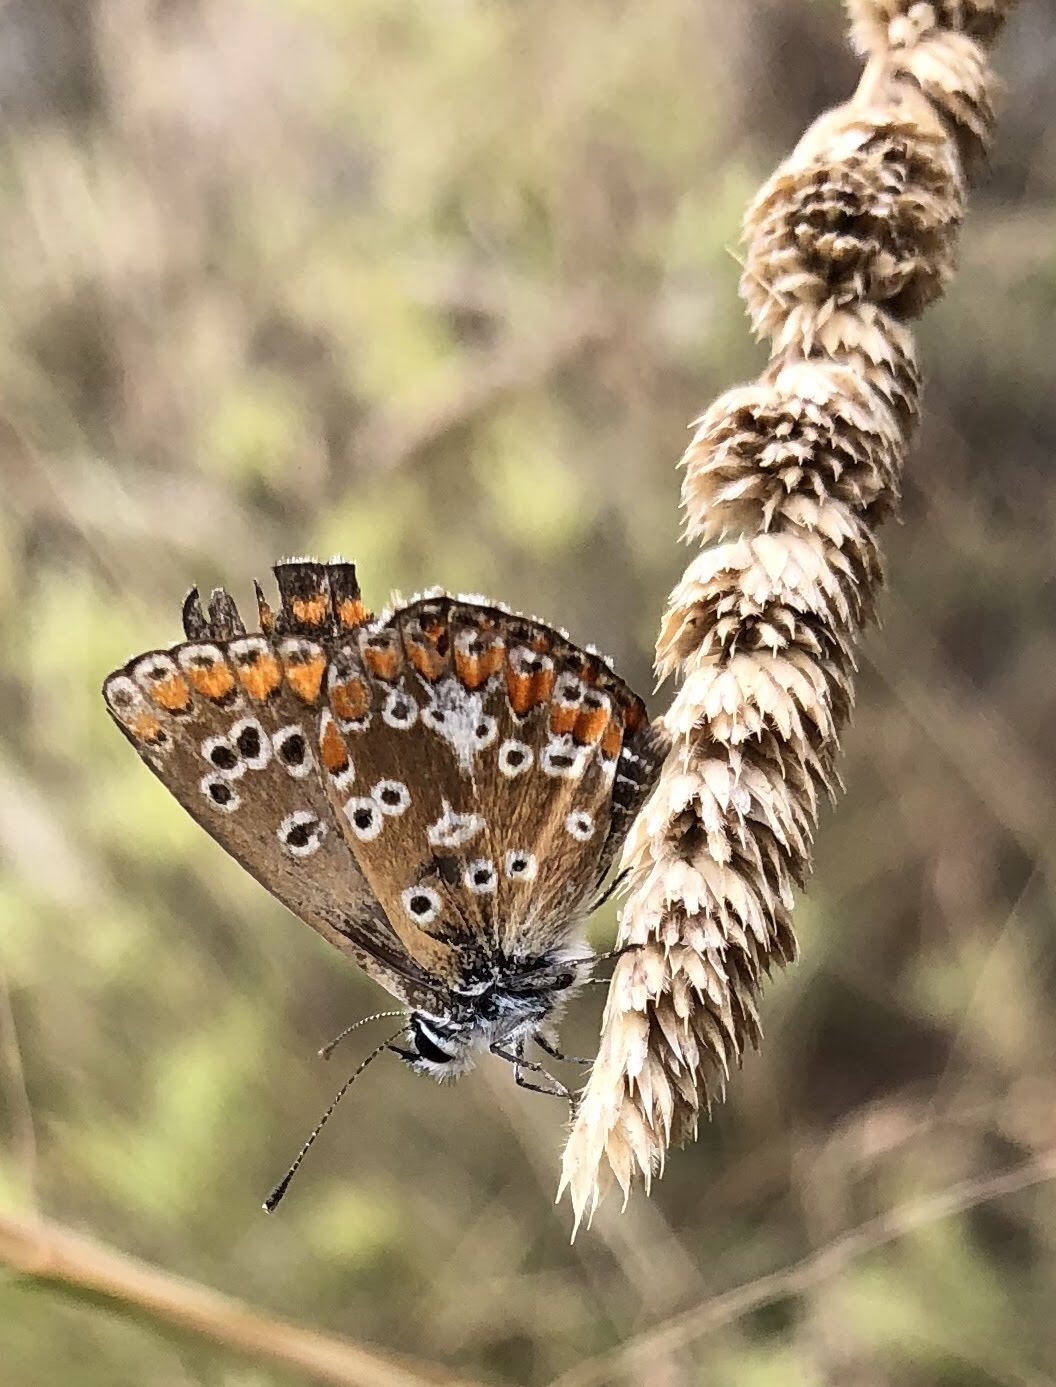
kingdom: Animalia
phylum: Arthropoda
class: Insecta
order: Lepidoptera
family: Lycaenidae
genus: Aricia
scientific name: Aricia cramera
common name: Eschscholtz´s brown  argus
